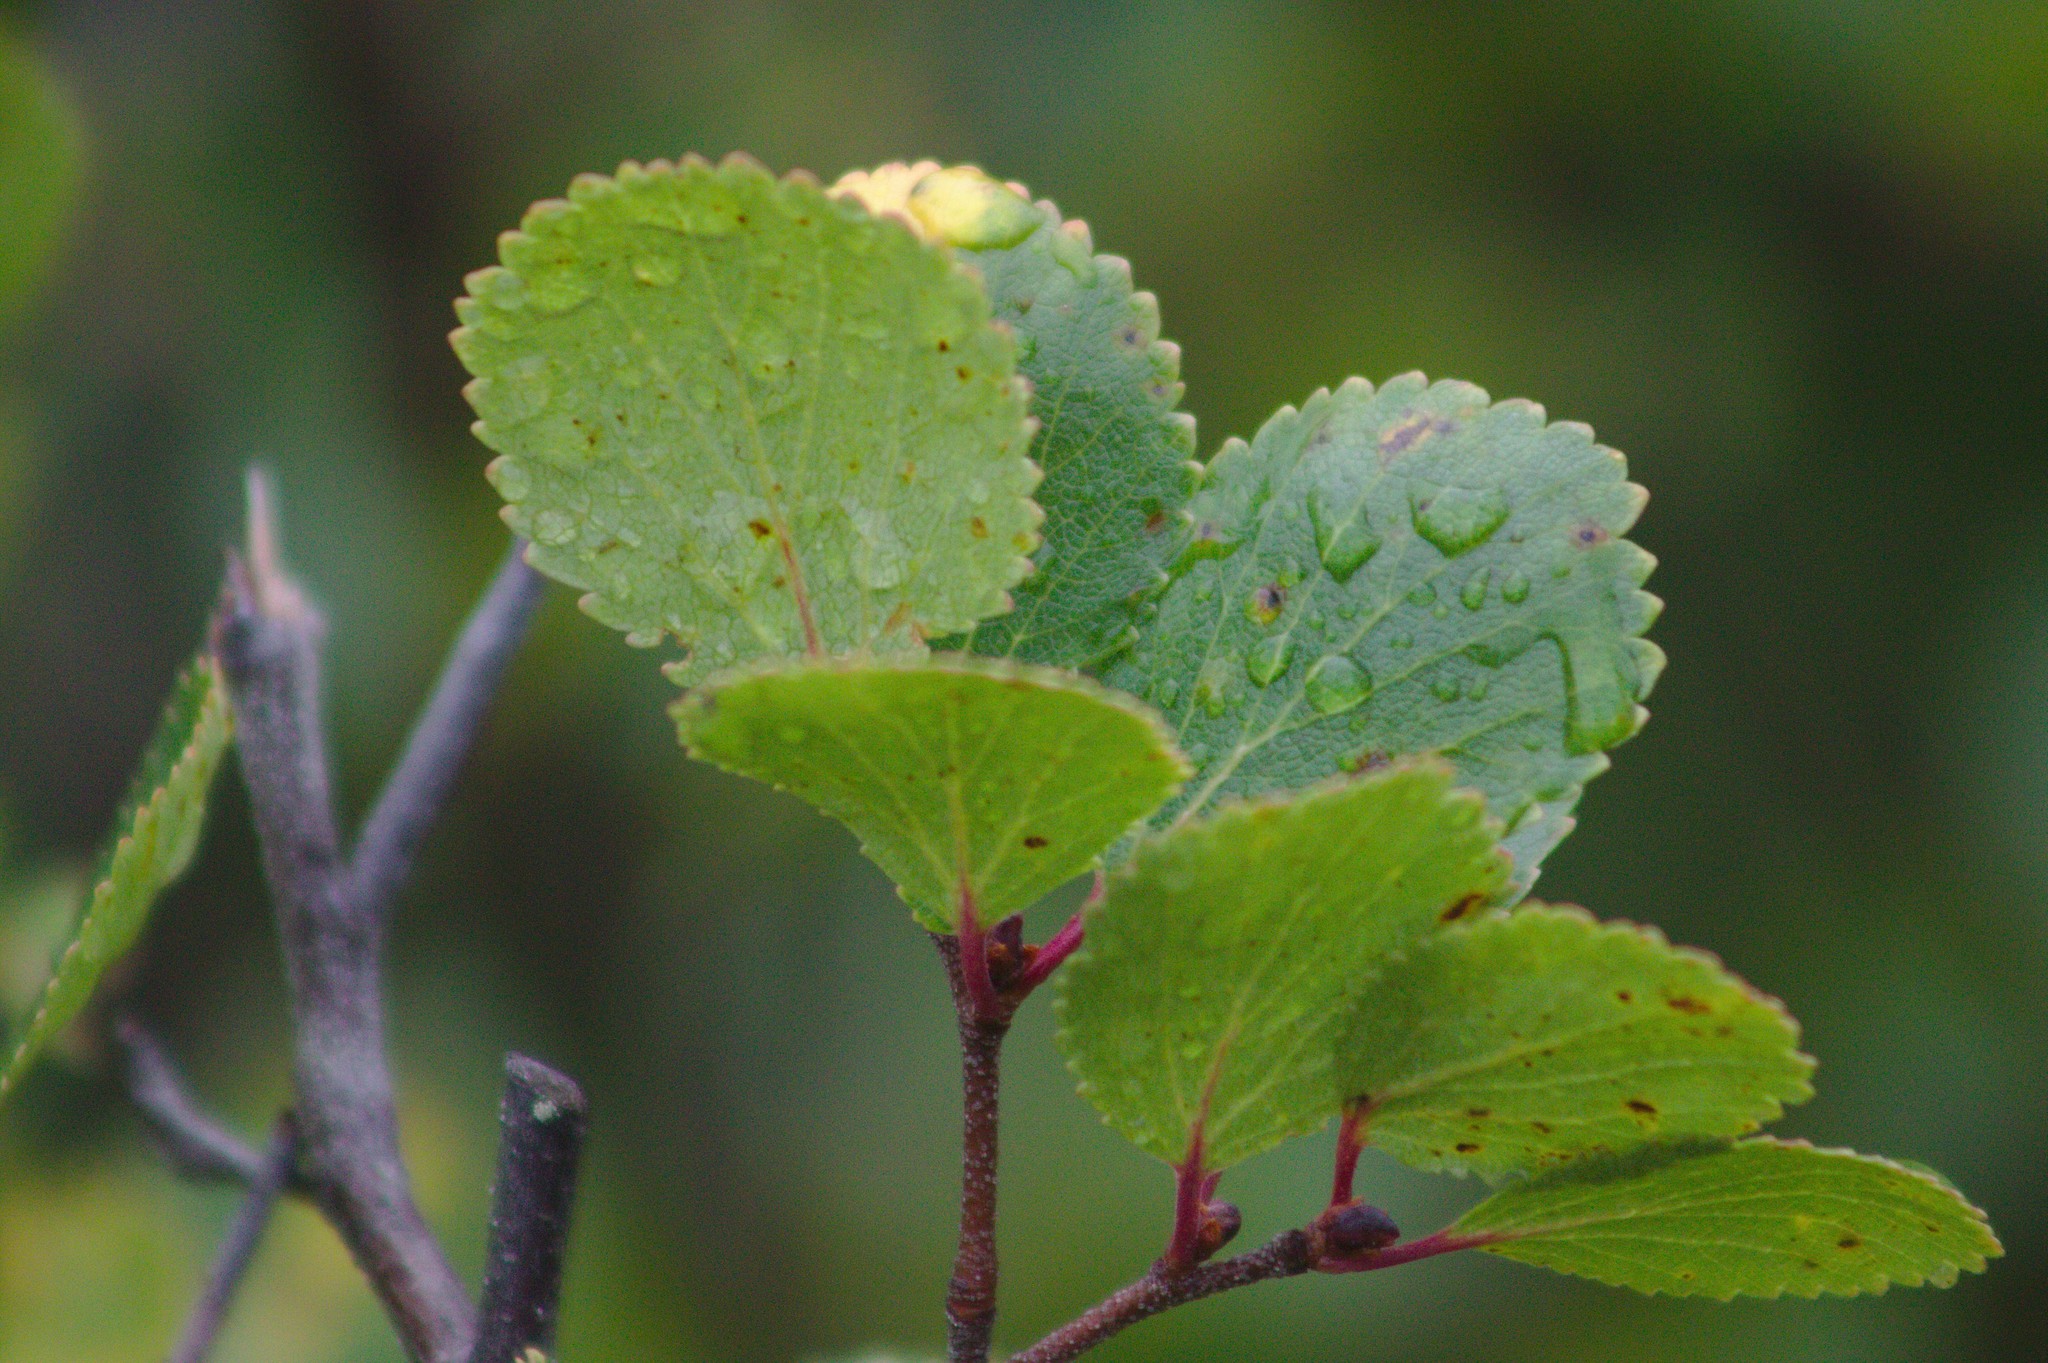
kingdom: Plantae
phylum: Tracheophyta
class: Magnoliopsida
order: Fagales
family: Betulaceae
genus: Betula
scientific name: Betula glandulosa
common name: Dwarf birch
